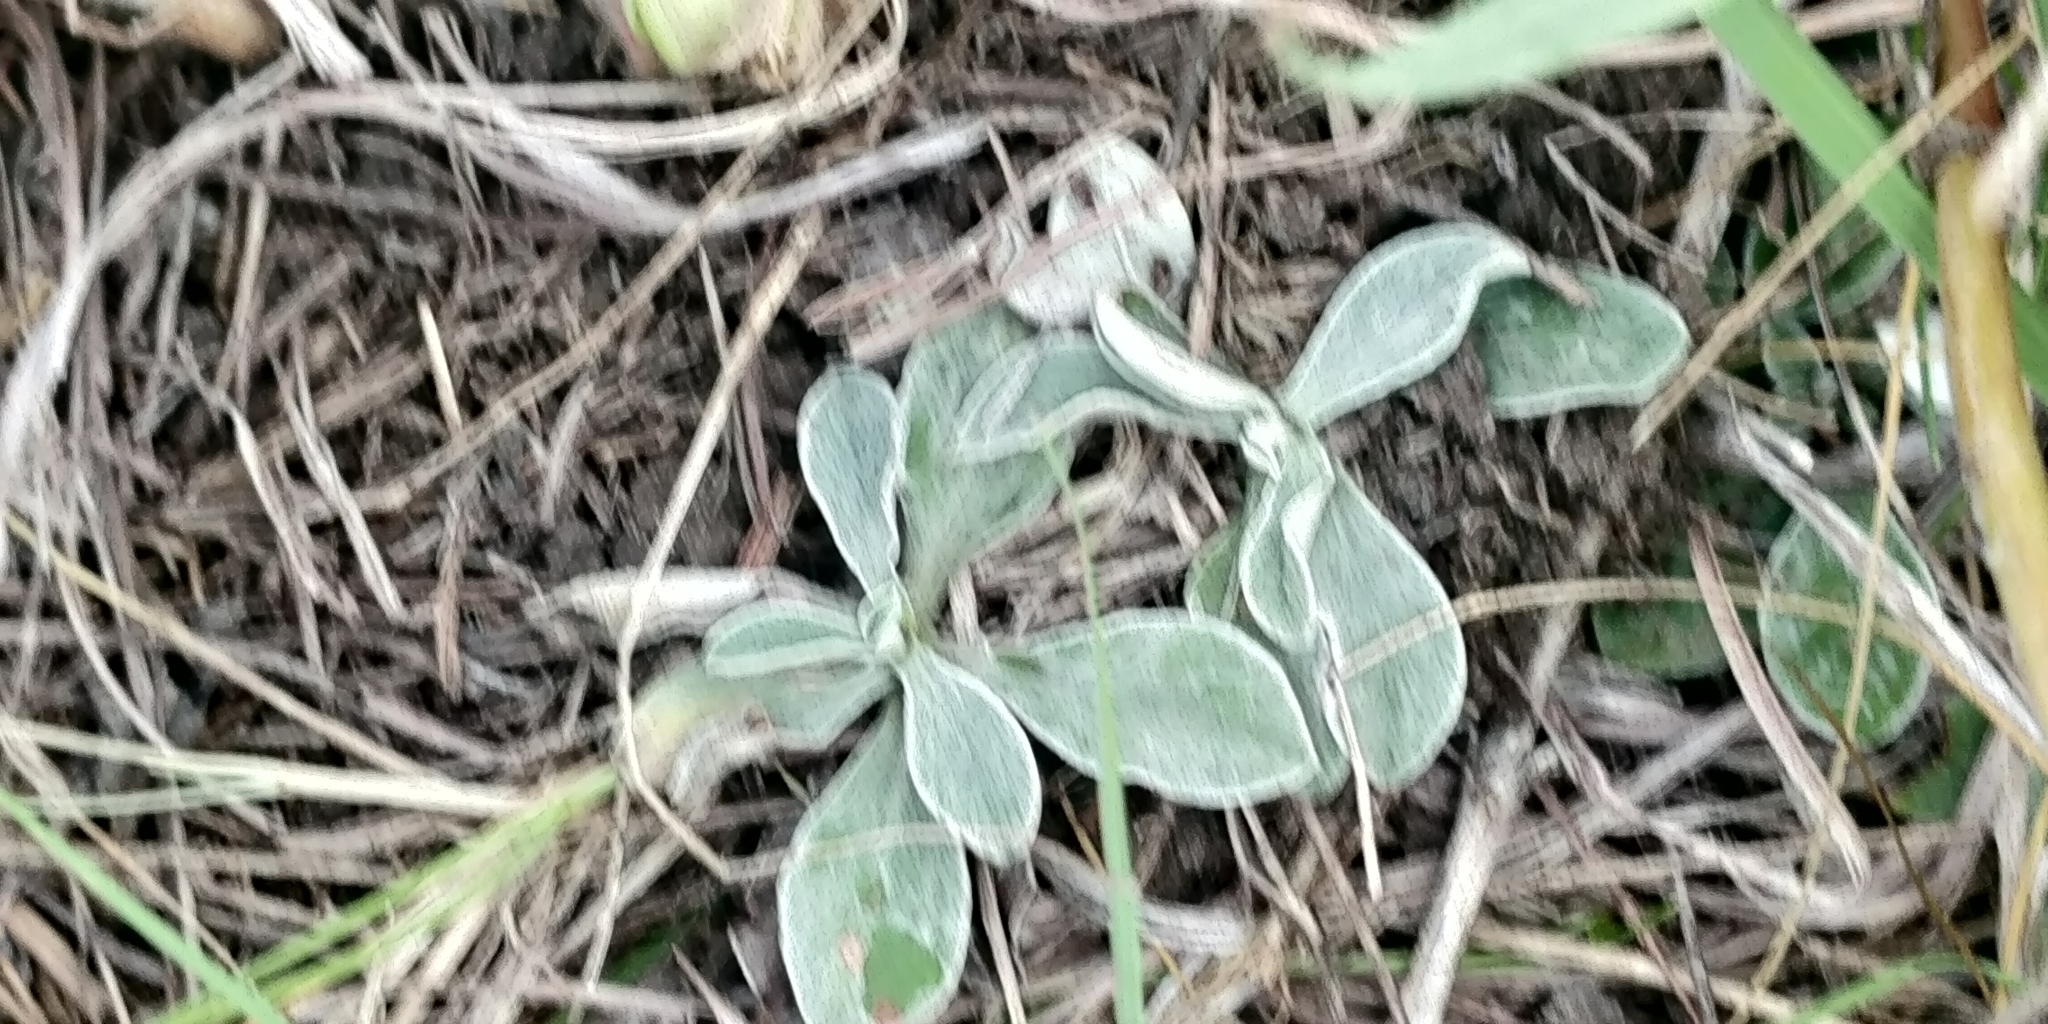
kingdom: Plantae
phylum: Tracheophyta
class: Magnoliopsida
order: Asterales
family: Asteraceae
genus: Antennaria
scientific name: Antennaria neglecta
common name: Field pussytoes
